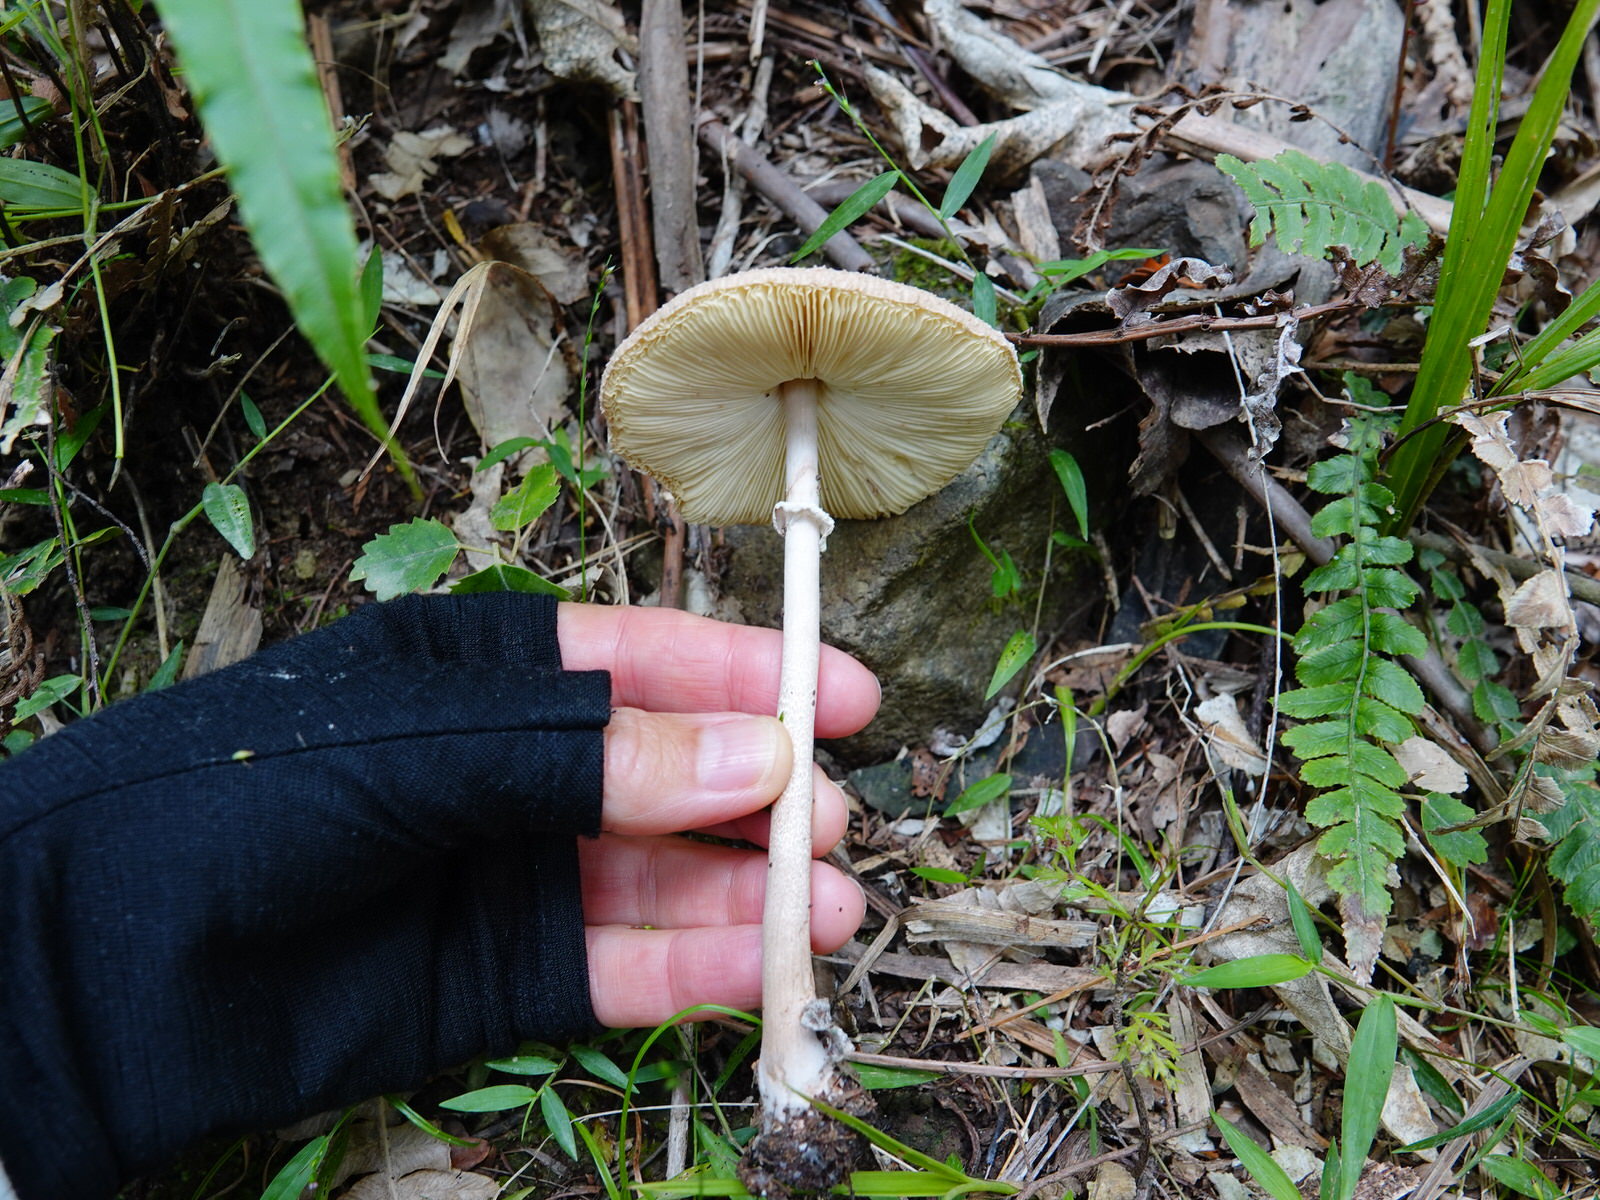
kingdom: Fungi
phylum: Basidiomycota
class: Agaricomycetes
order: Agaricales
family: Agaricaceae
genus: Macrolepiota
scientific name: Macrolepiota clelandii
